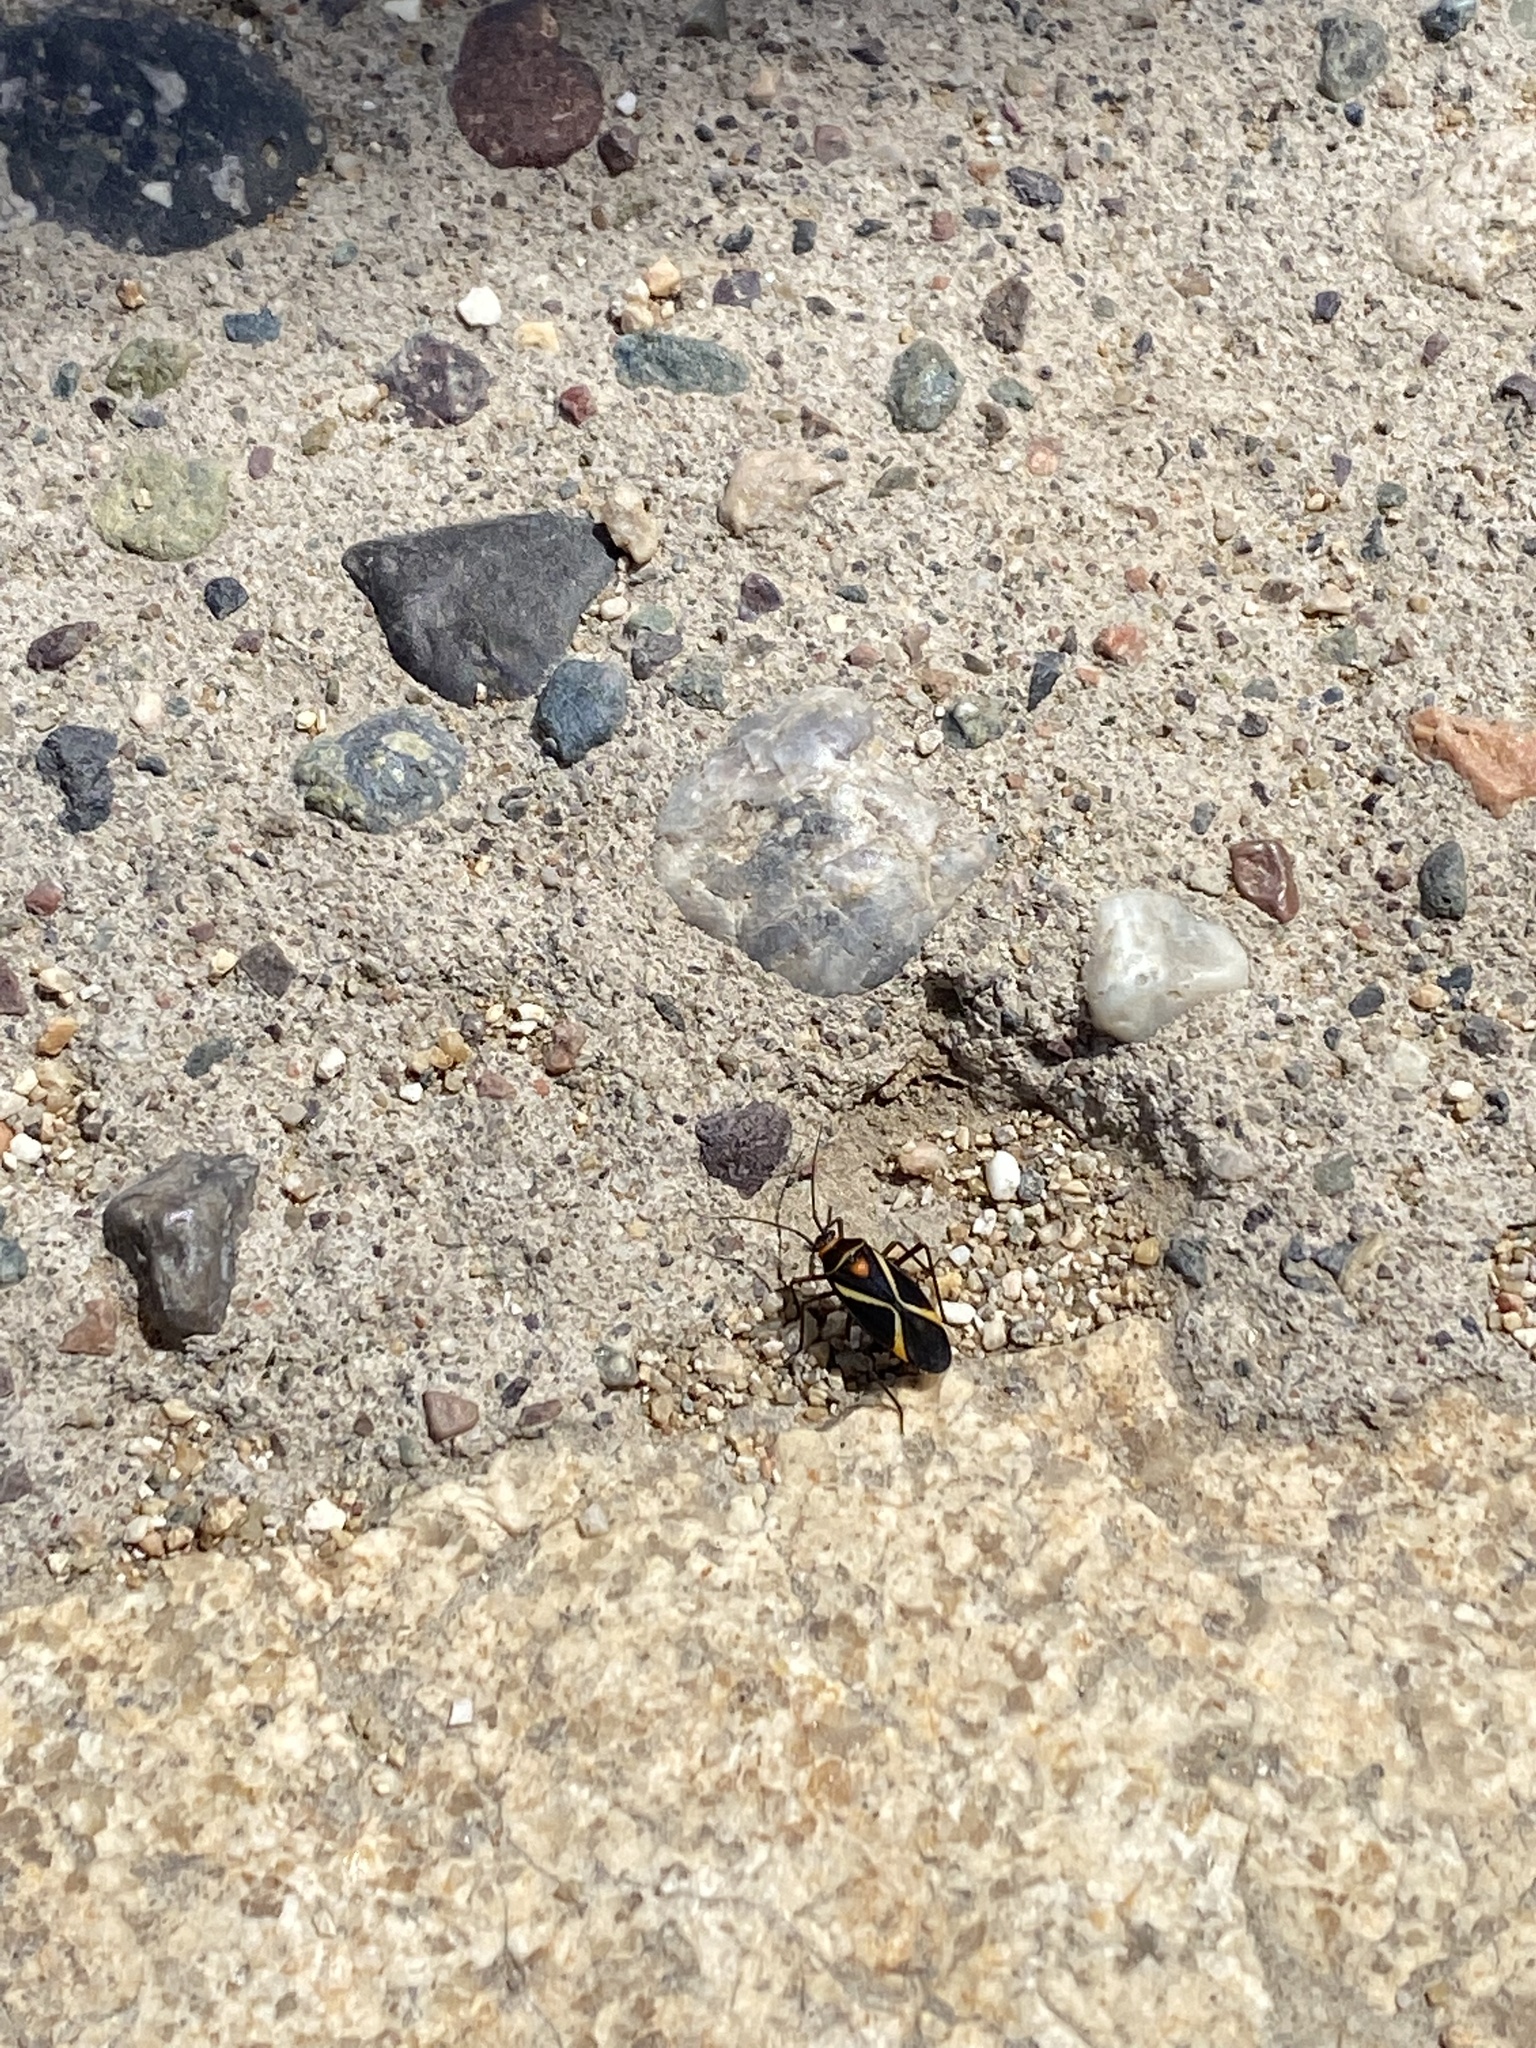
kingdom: Animalia
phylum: Arthropoda
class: Insecta
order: Hemiptera
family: Miridae
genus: Eurylomata
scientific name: Eurylomata picturata
